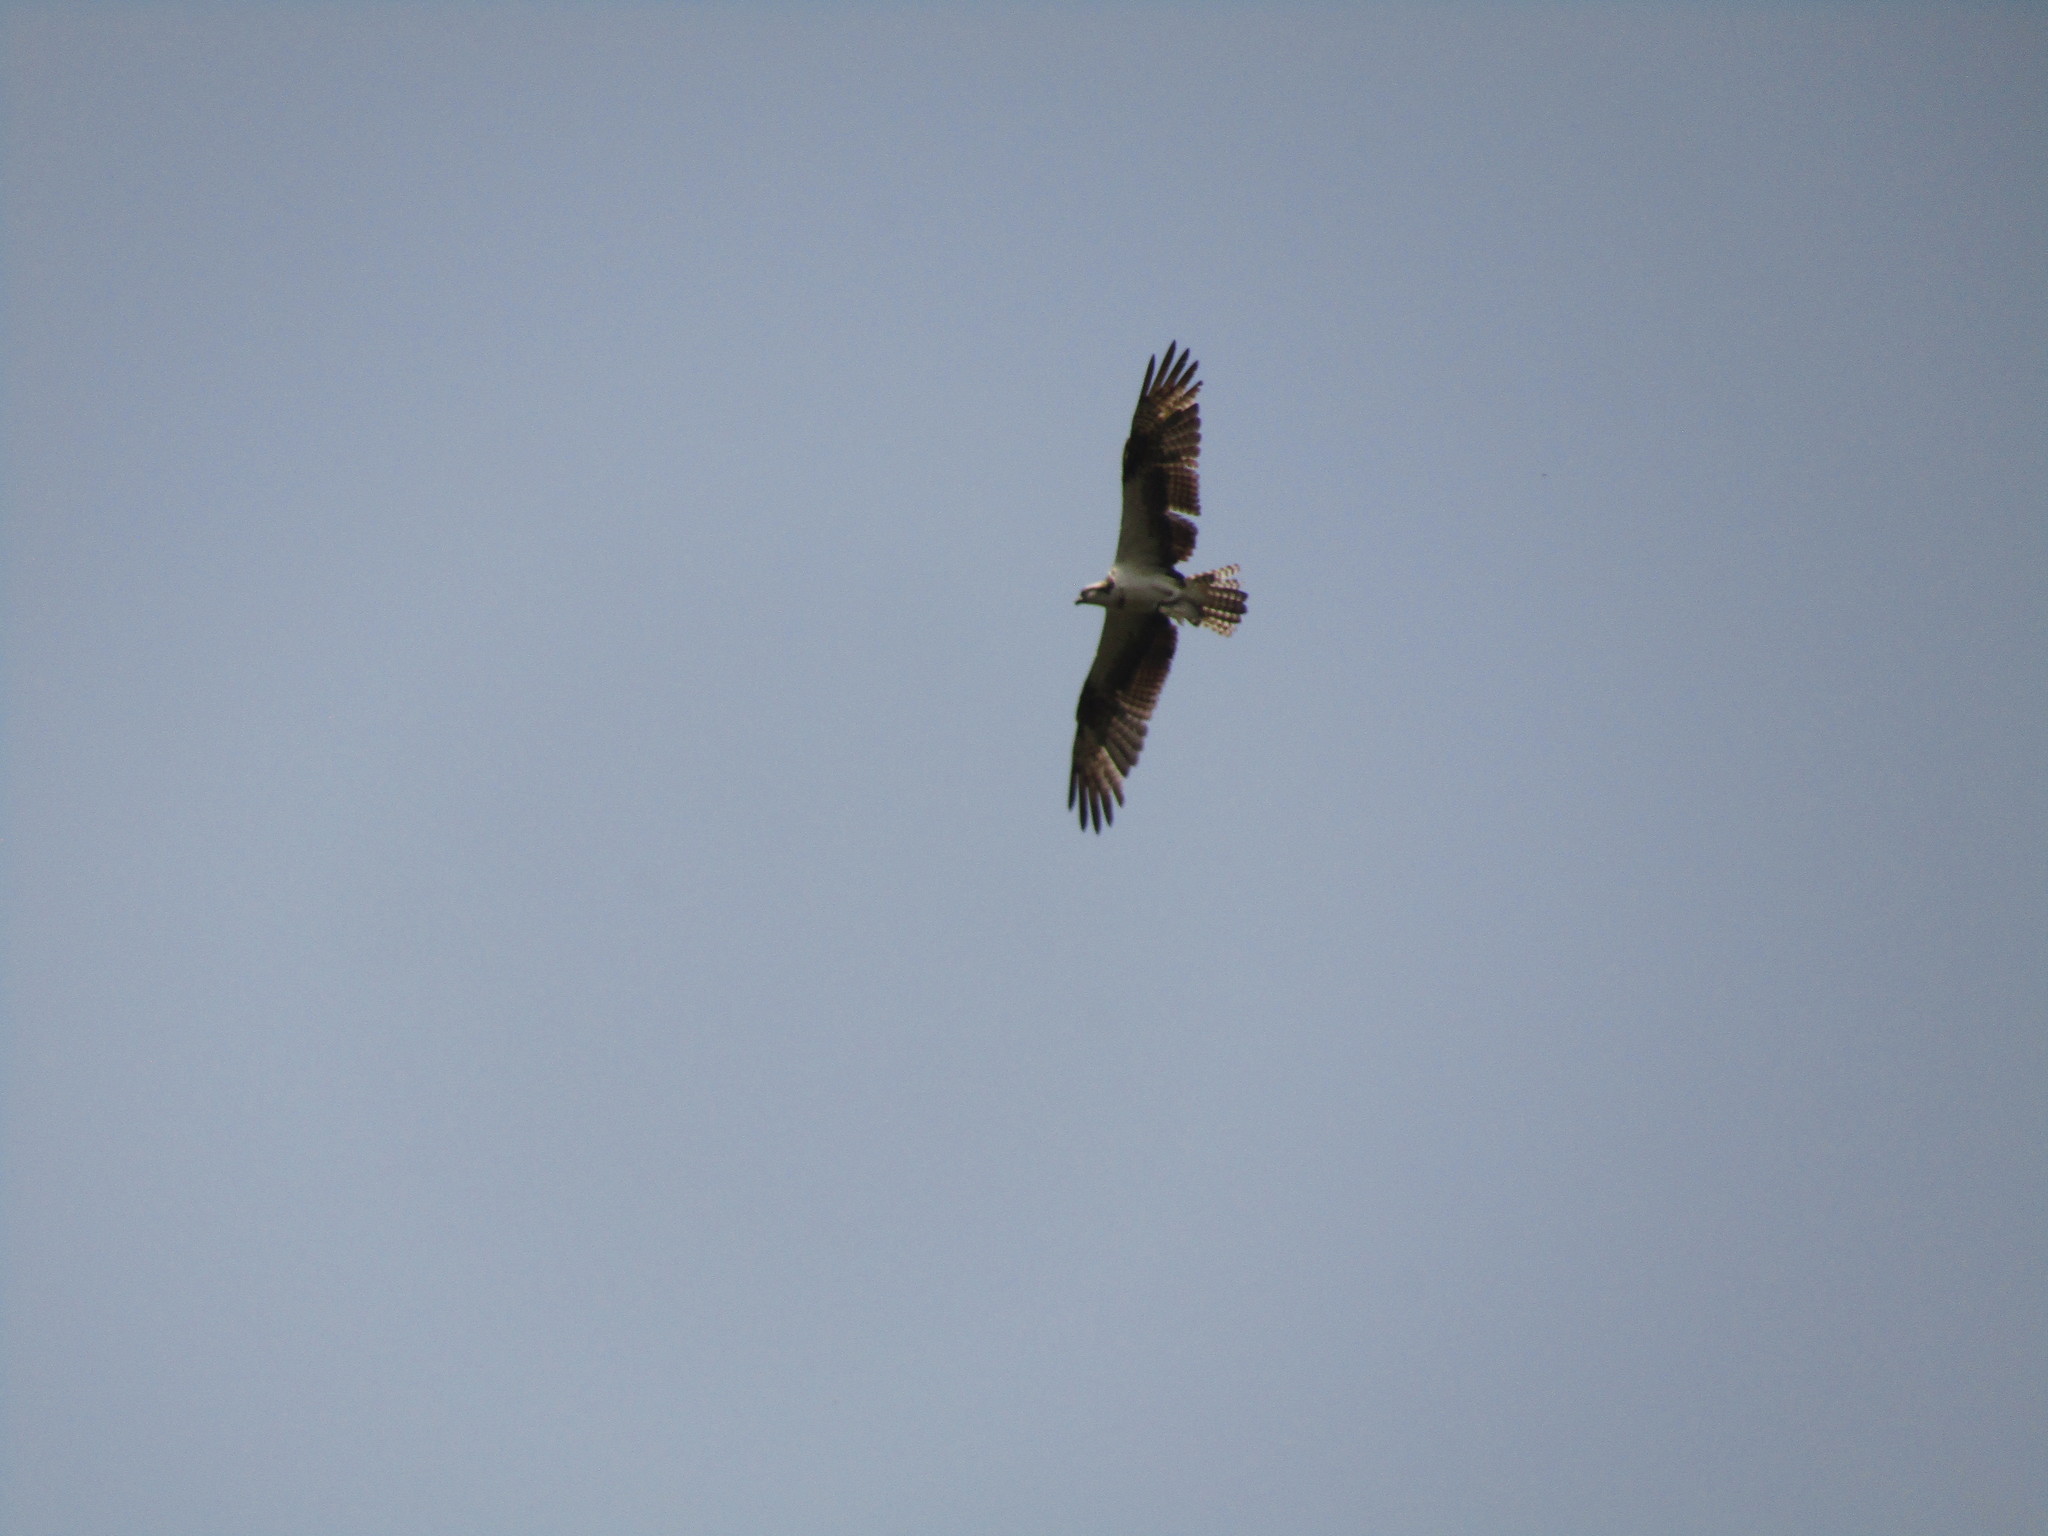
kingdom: Animalia
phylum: Chordata
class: Aves
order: Accipitriformes
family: Pandionidae
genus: Pandion
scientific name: Pandion haliaetus
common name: Osprey
